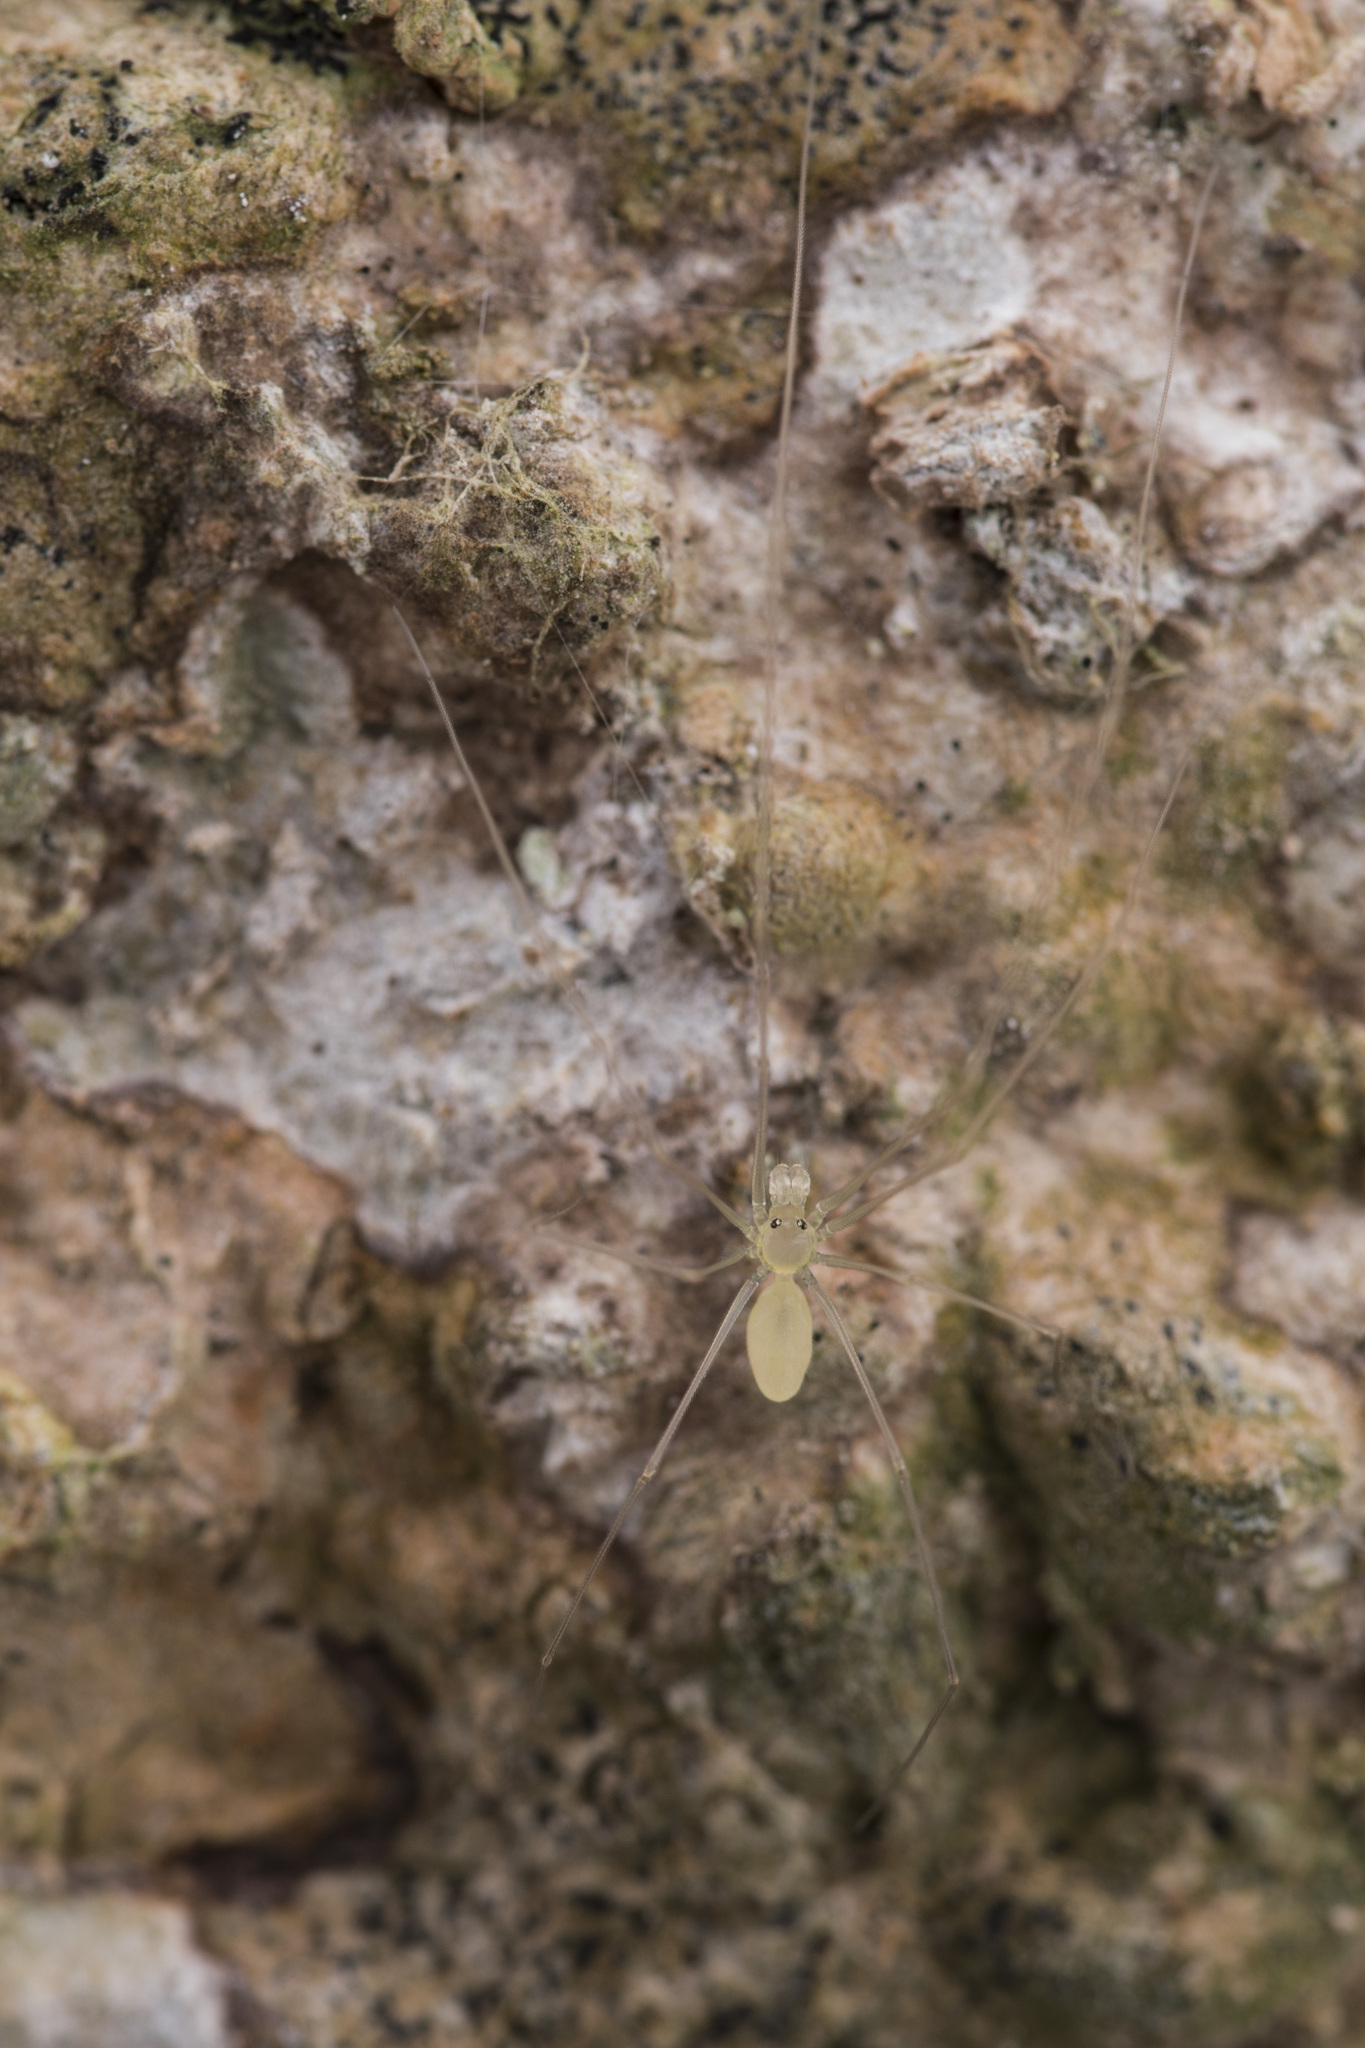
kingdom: Animalia
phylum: Arthropoda
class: Arachnida
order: Araneae
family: Pholcidae
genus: Belisana
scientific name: Belisana junkoae
